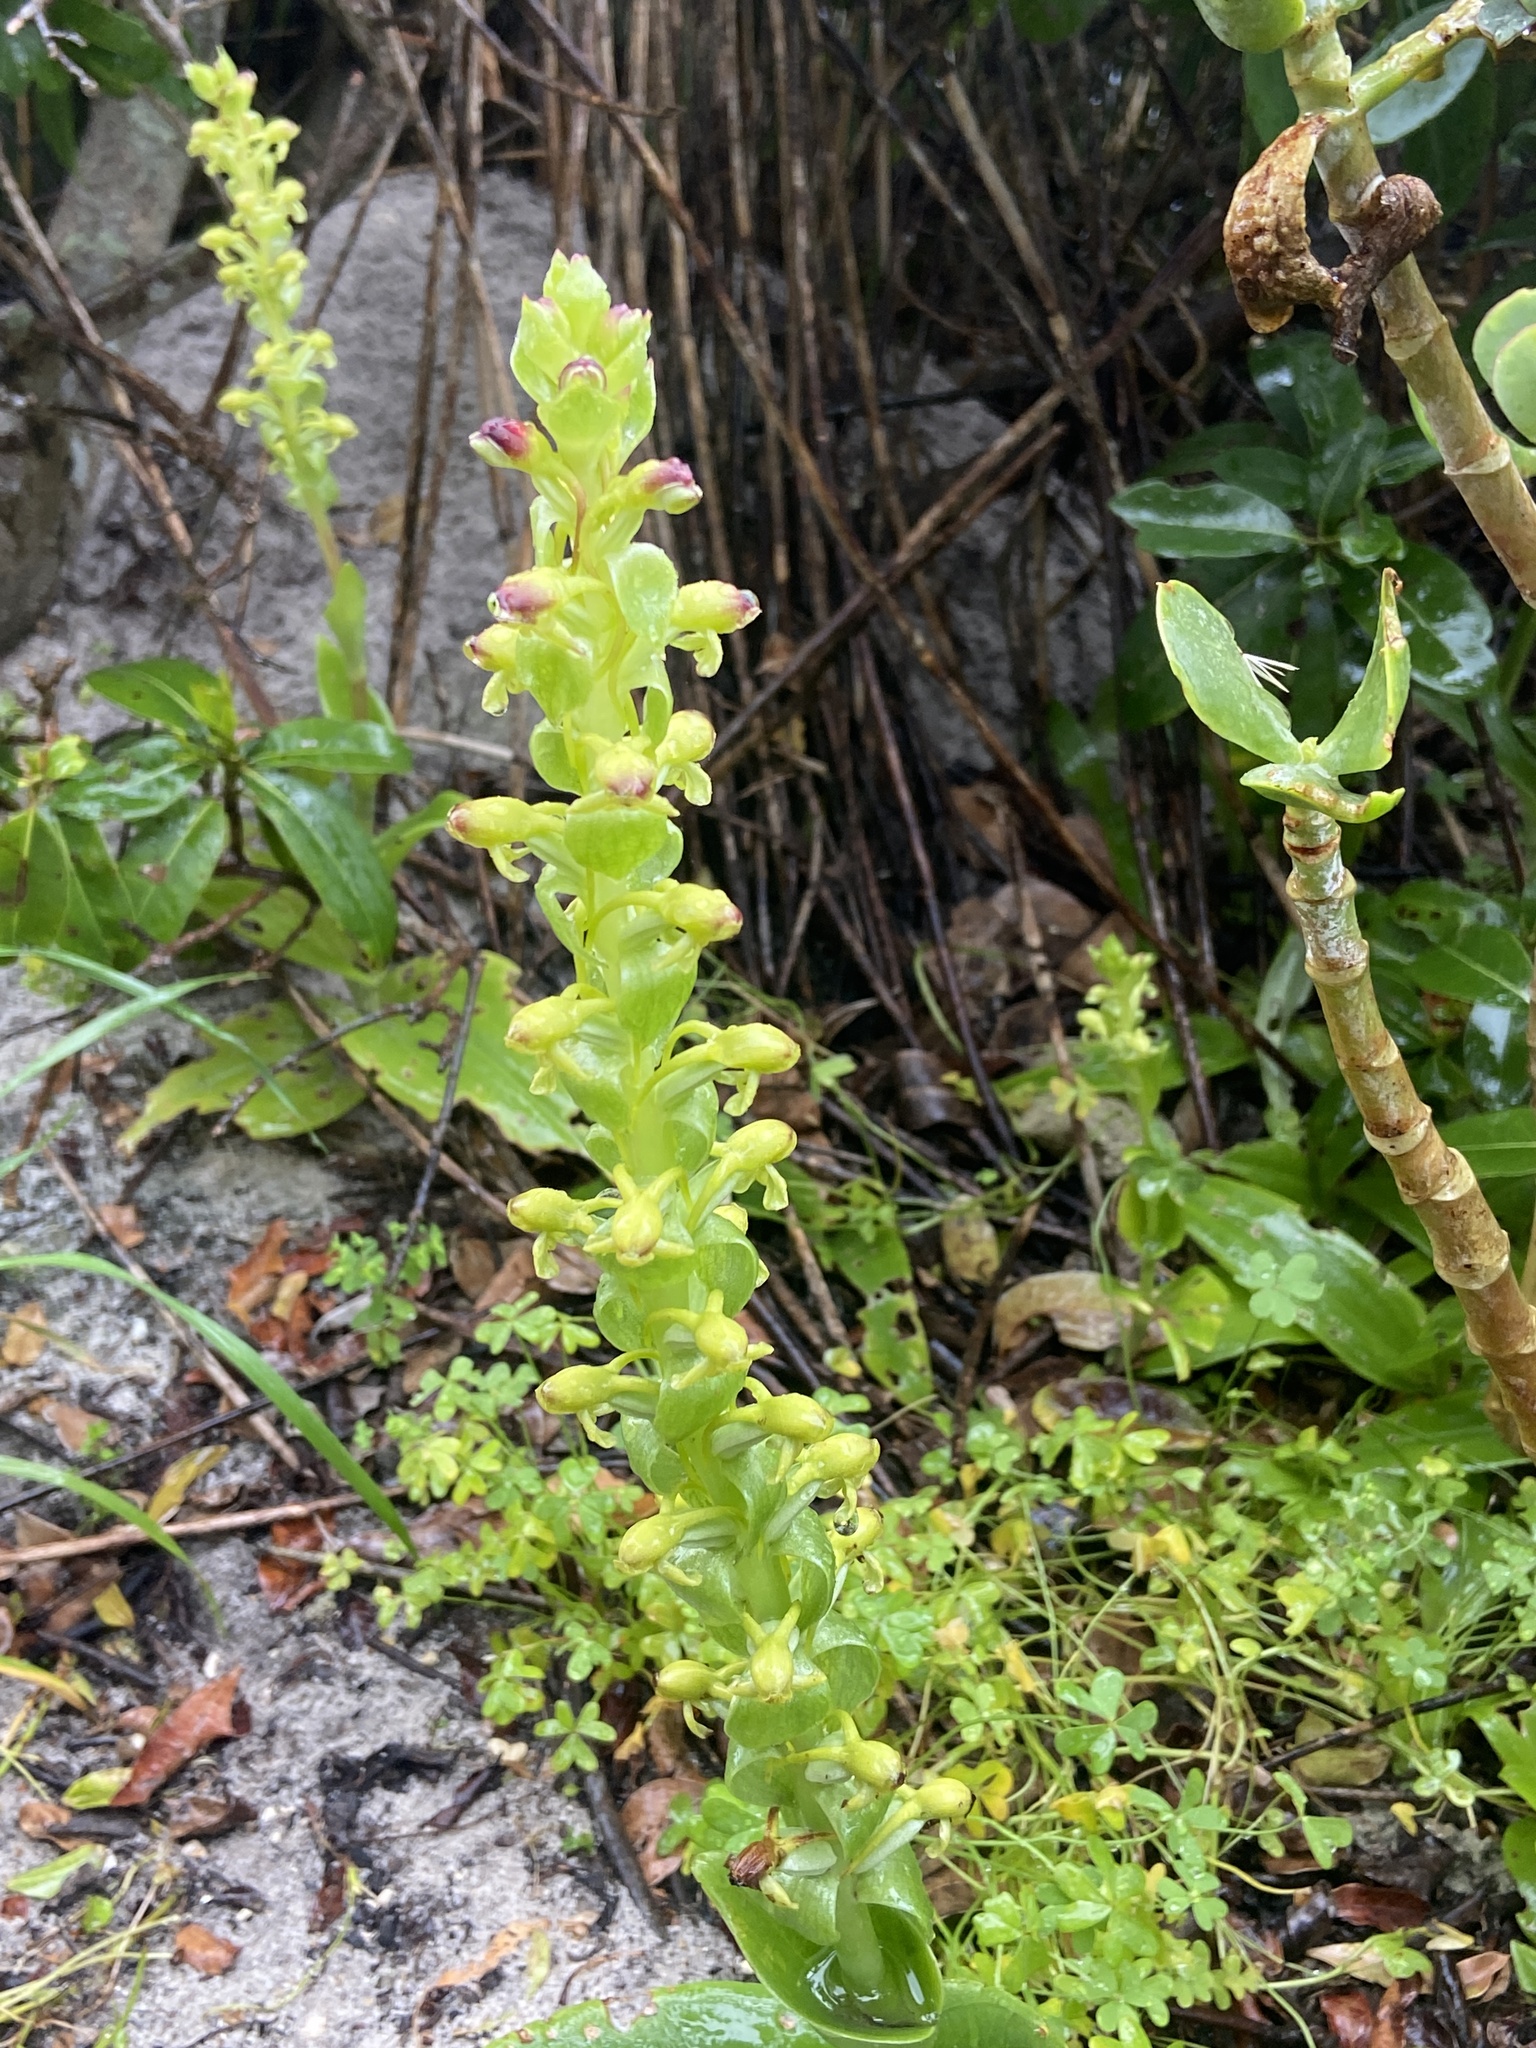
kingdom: Plantae
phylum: Tracheophyta
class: Liliopsida
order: Asparagales
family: Orchidaceae
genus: Satyrium
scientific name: Satyrium odorum
